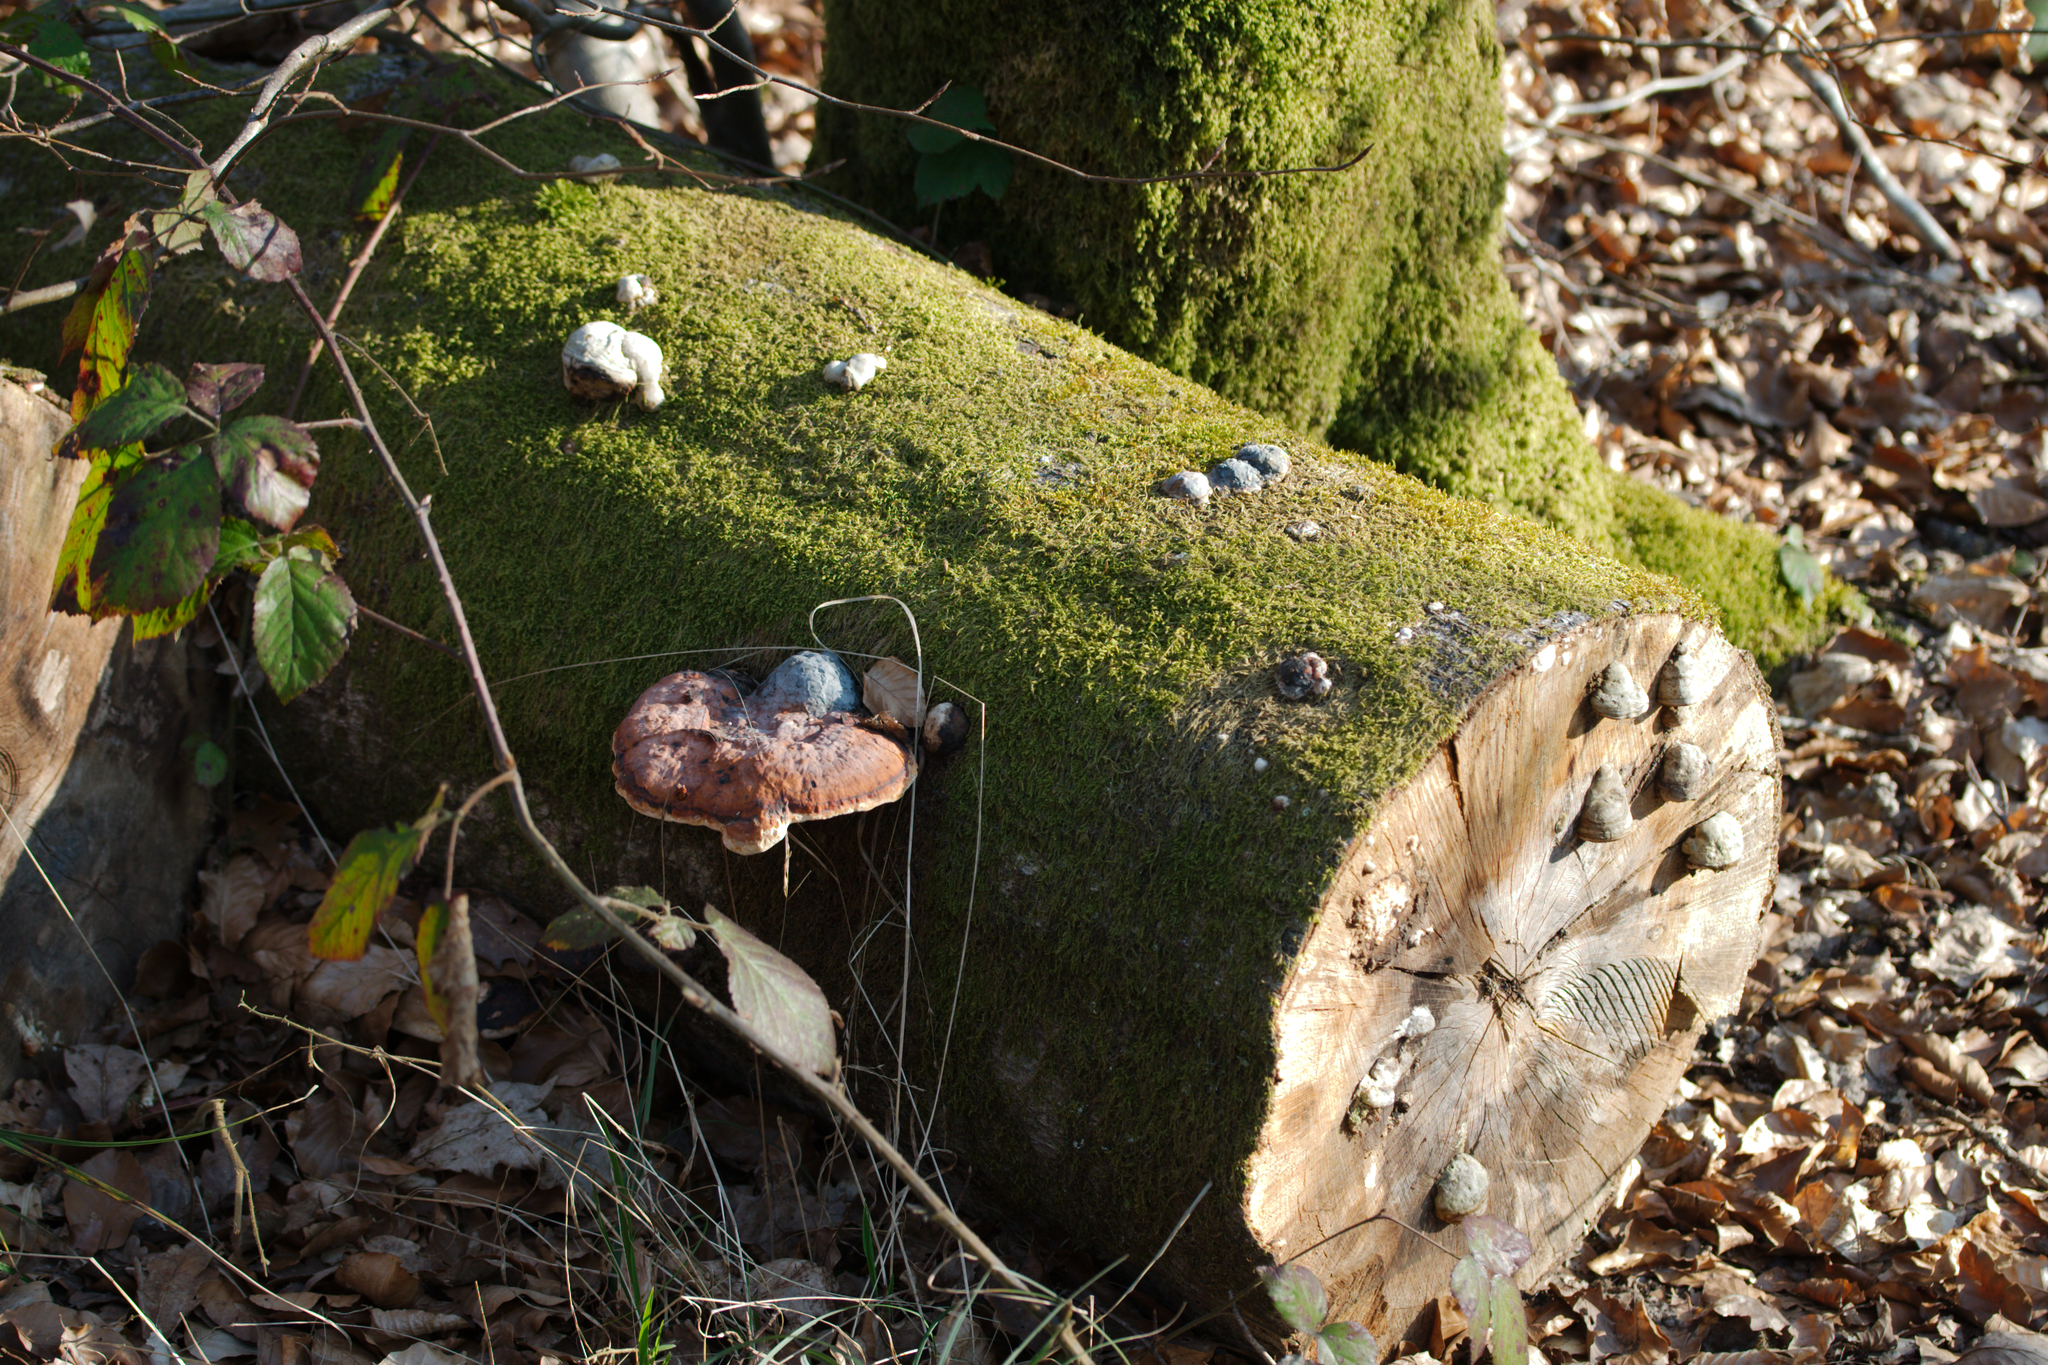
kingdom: Fungi
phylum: Basidiomycota
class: Agaricomycetes
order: Polyporales
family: Fomitopsidaceae
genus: Fomitopsis
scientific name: Fomitopsis pinicola
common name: Red-belted bracket
